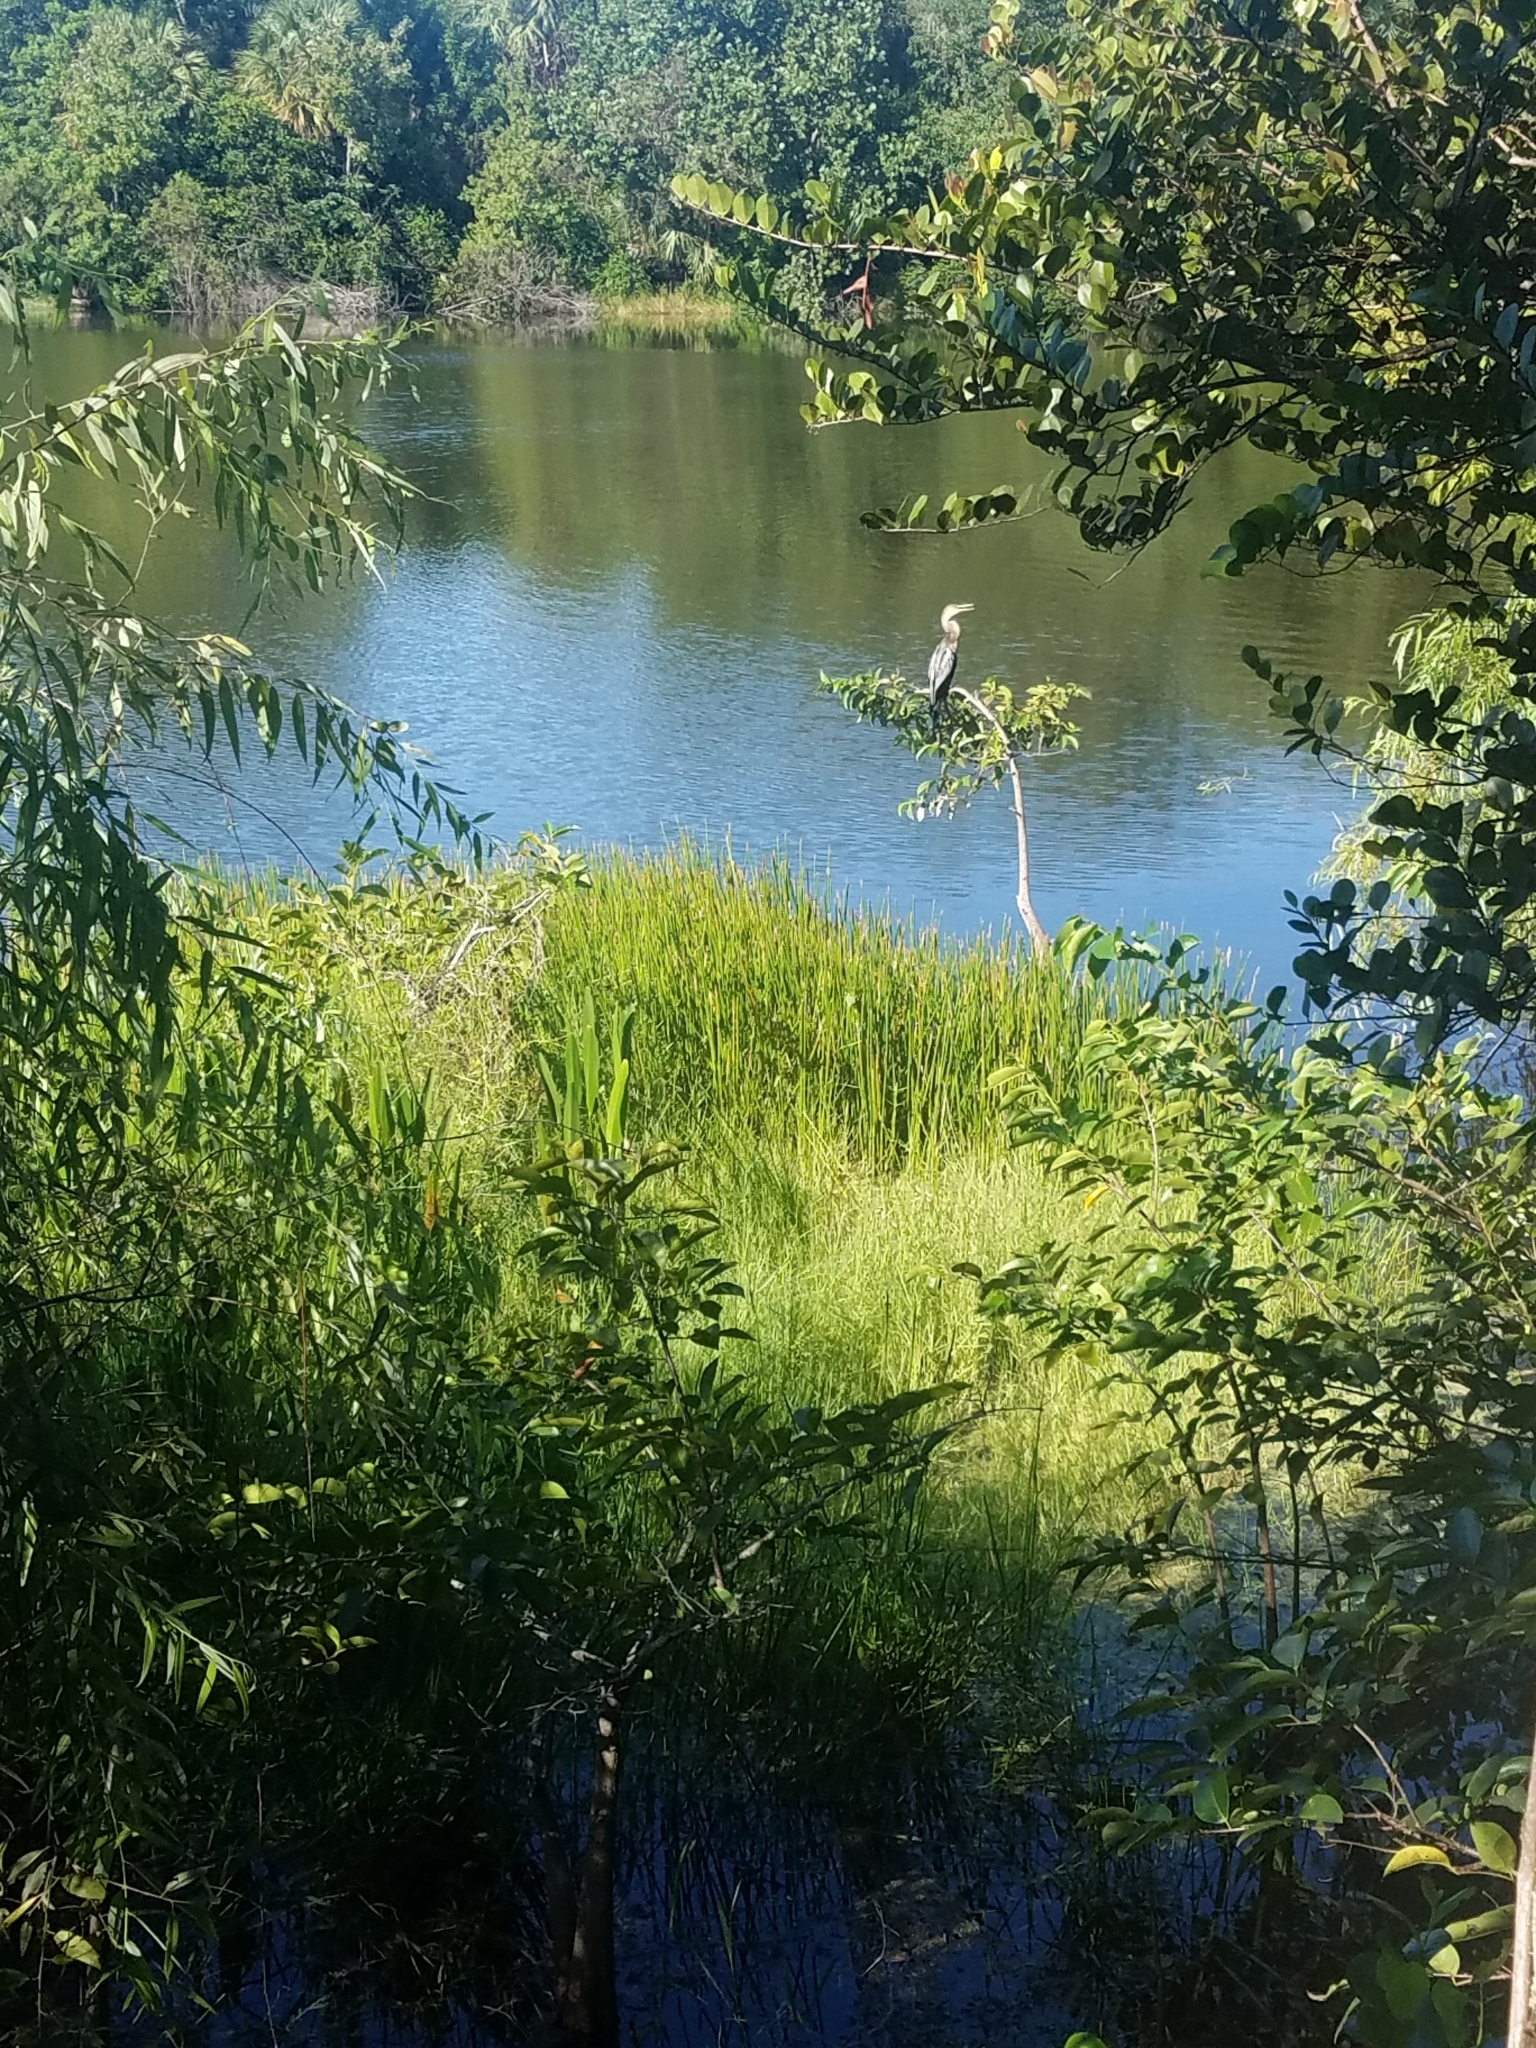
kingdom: Animalia
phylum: Chordata
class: Aves
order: Suliformes
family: Anhingidae
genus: Anhinga
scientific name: Anhinga anhinga
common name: Anhinga
